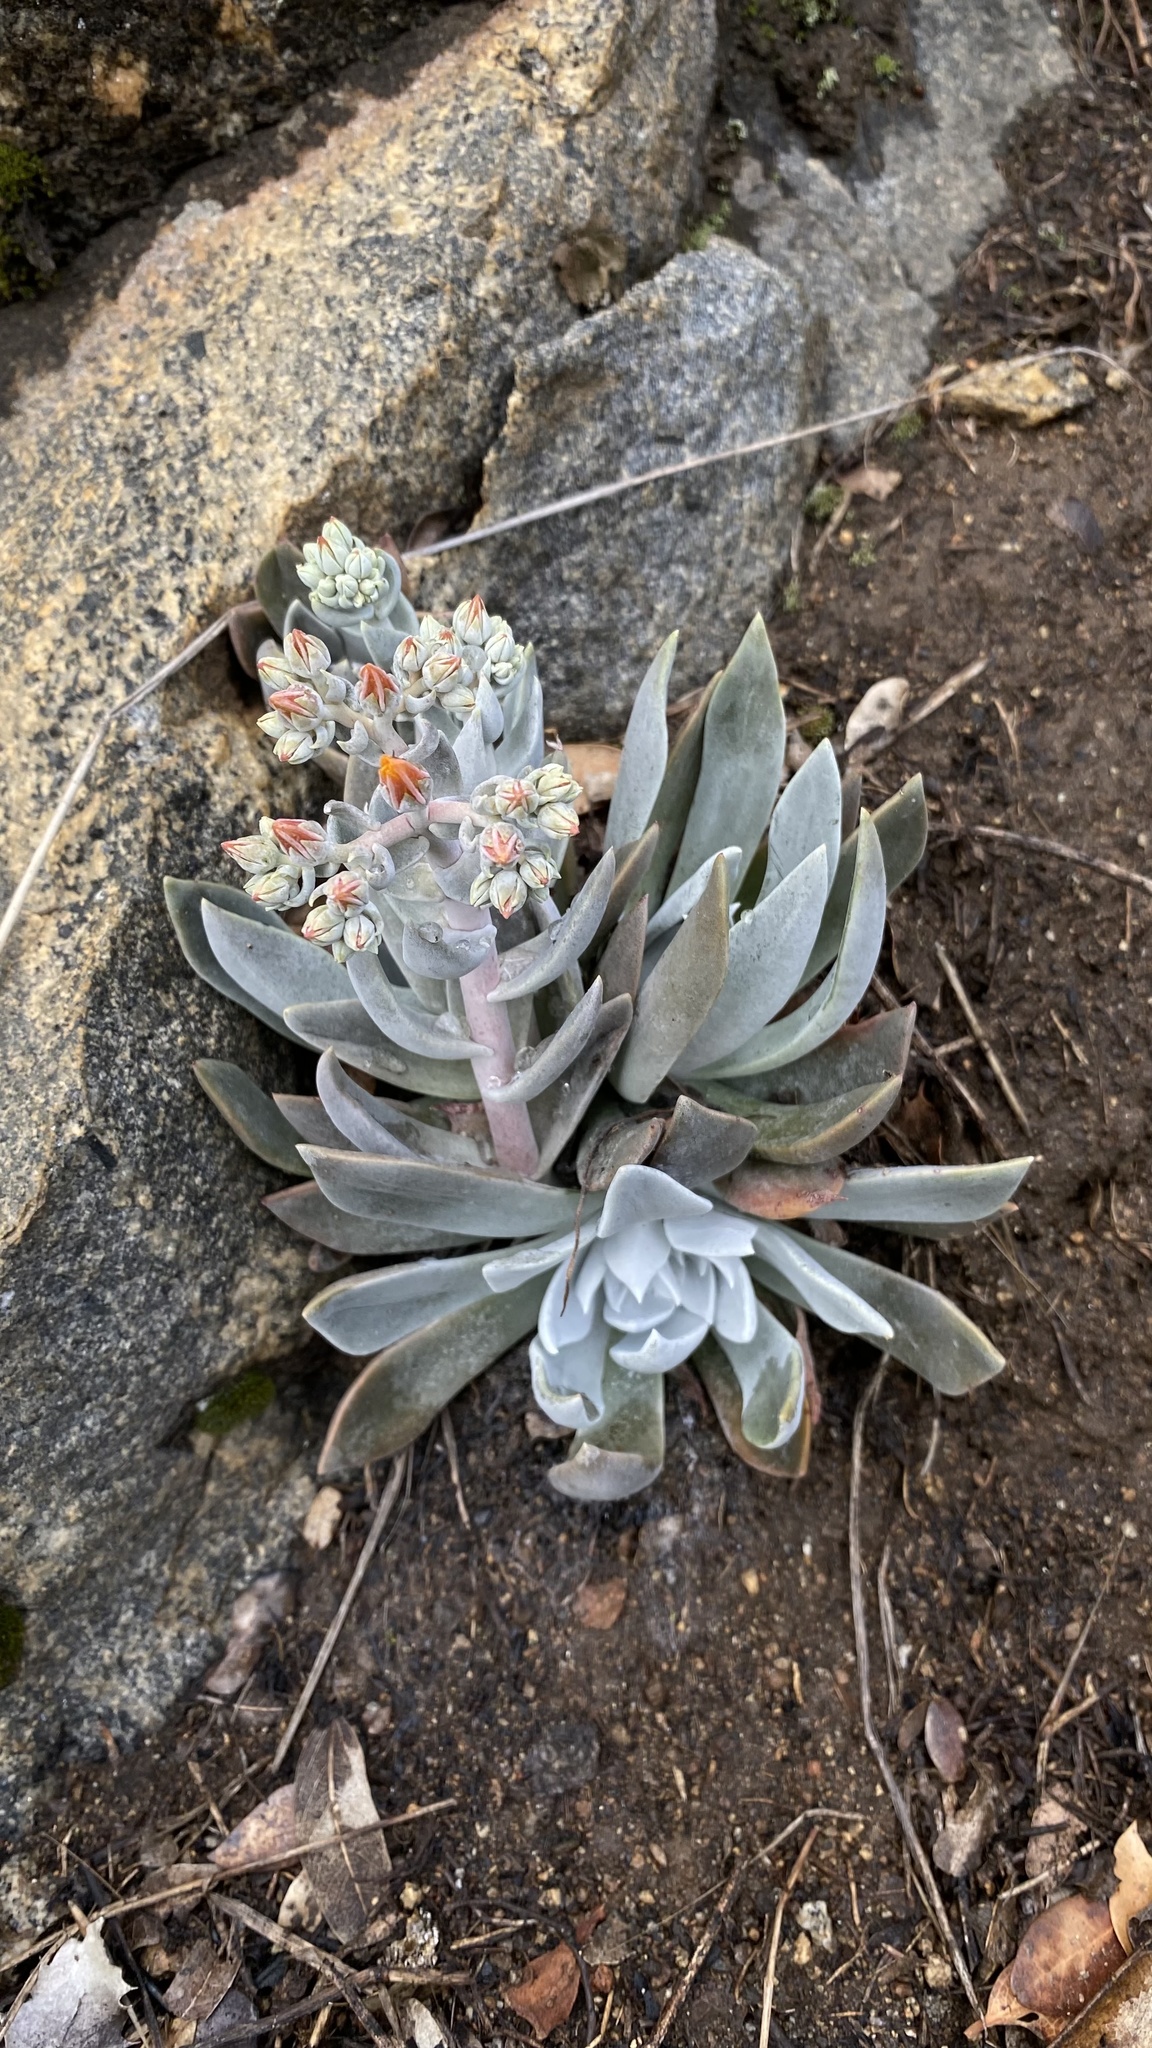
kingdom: Plantae
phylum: Tracheophyta
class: Magnoliopsida
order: Saxifragales
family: Crassulaceae
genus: Dudleya
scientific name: Dudleya cymosa
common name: Canyon dudleya
